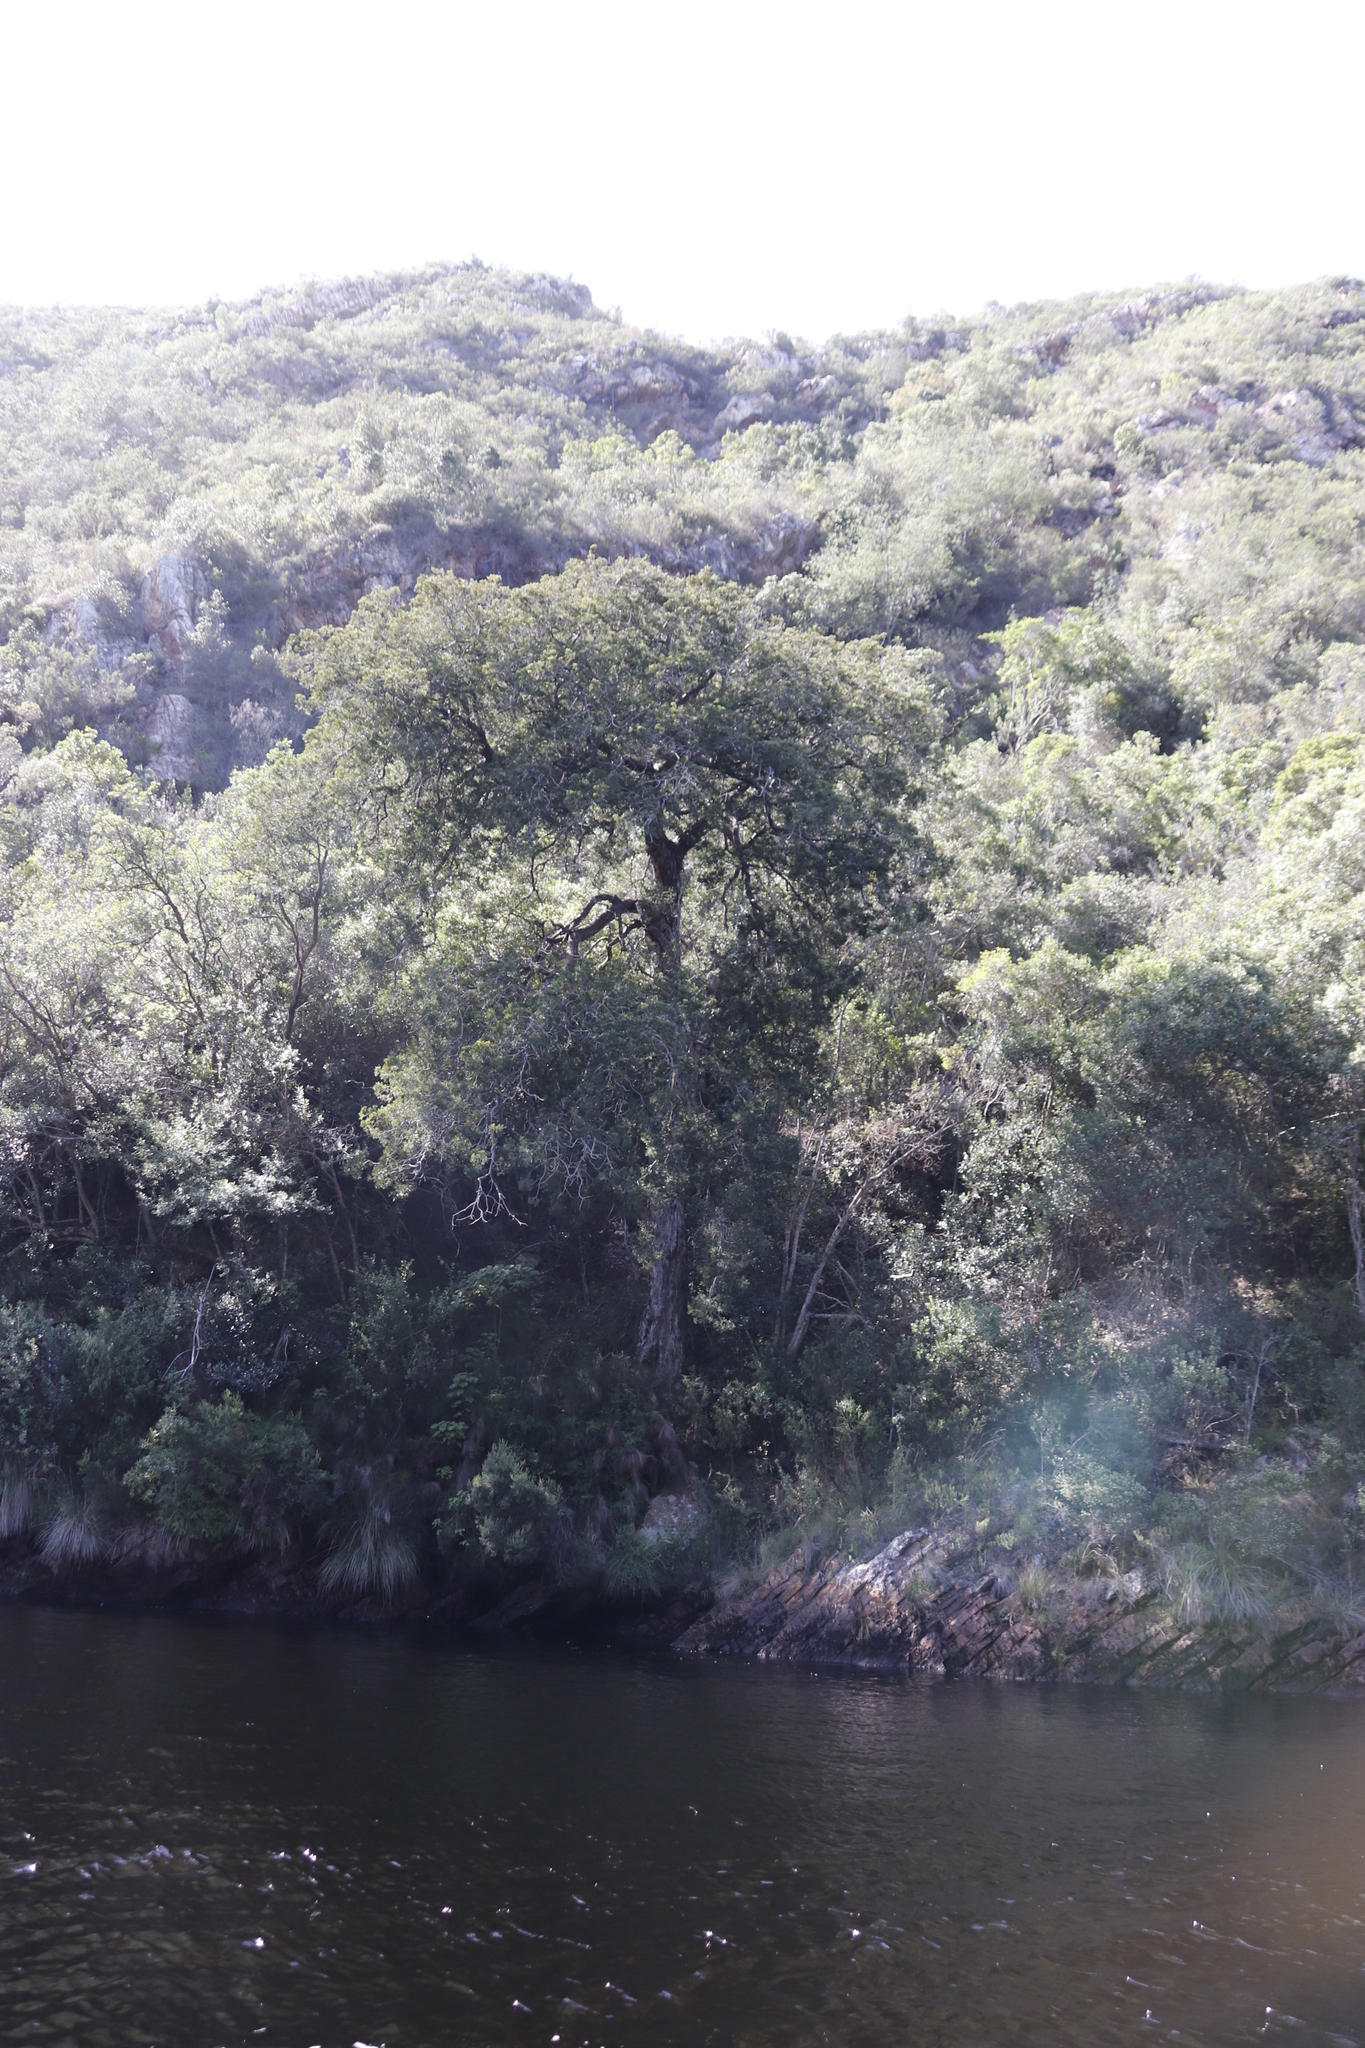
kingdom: Plantae
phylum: Tracheophyta
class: Pinopsida
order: Pinales
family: Podocarpaceae
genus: Afrocarpus
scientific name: Afrocarpus falcatus
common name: Bastard yellowwood
